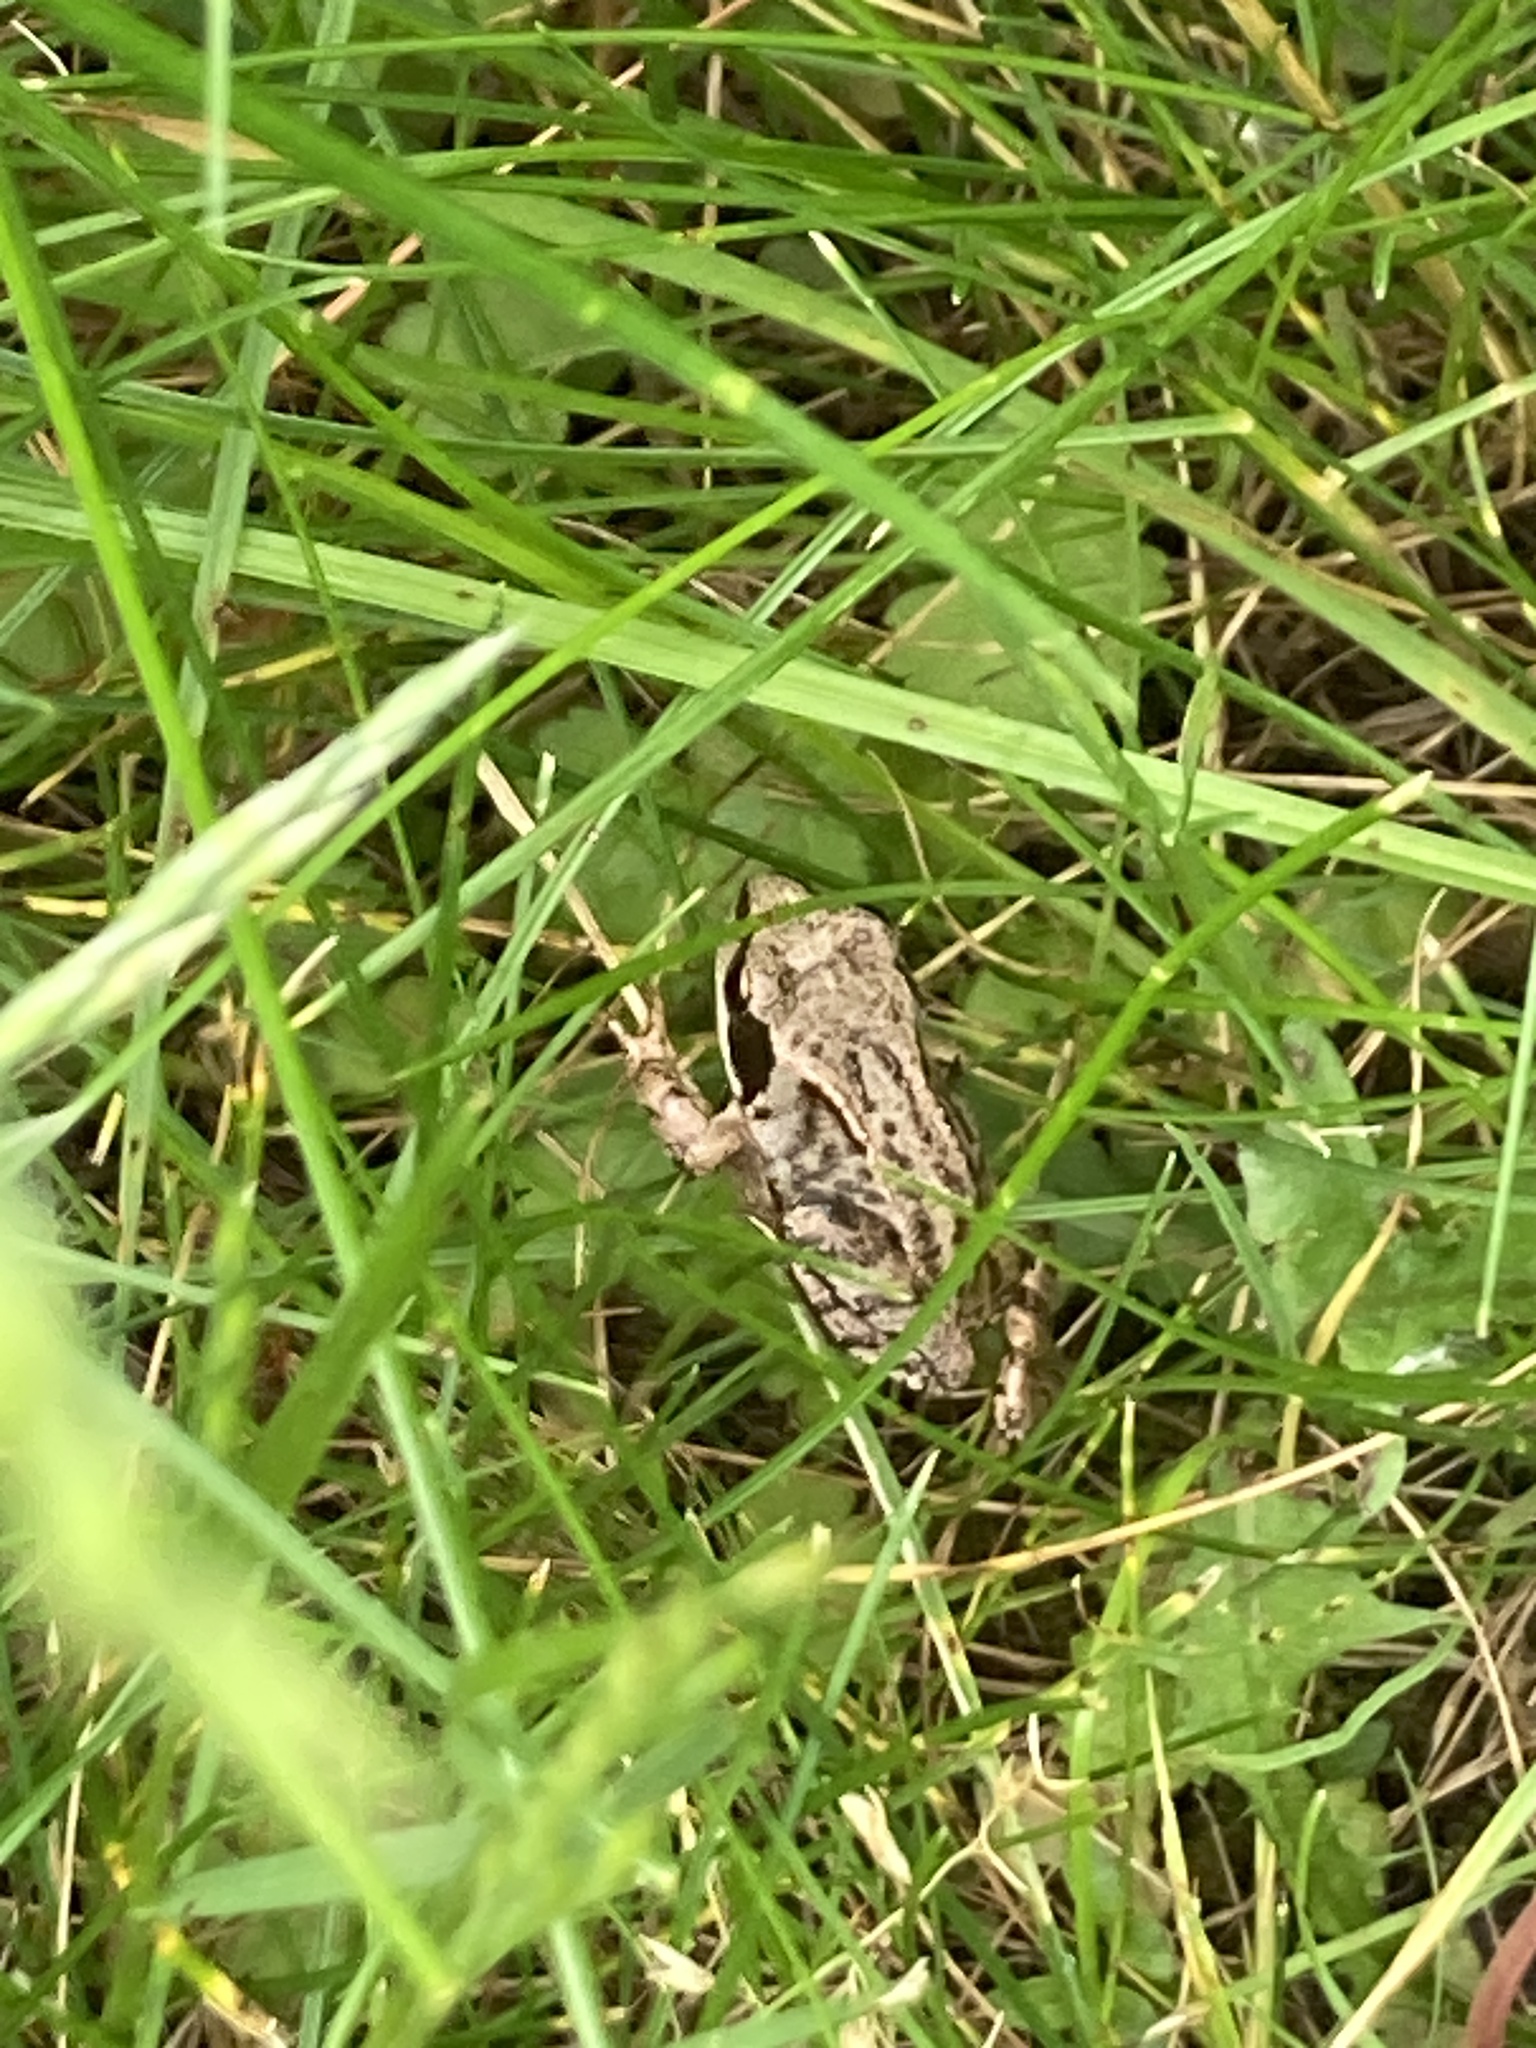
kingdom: Animalia
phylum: Chordata
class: Amphibia
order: Anura
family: Ranidae
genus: Rana
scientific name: Rana temporaria
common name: Common frog
